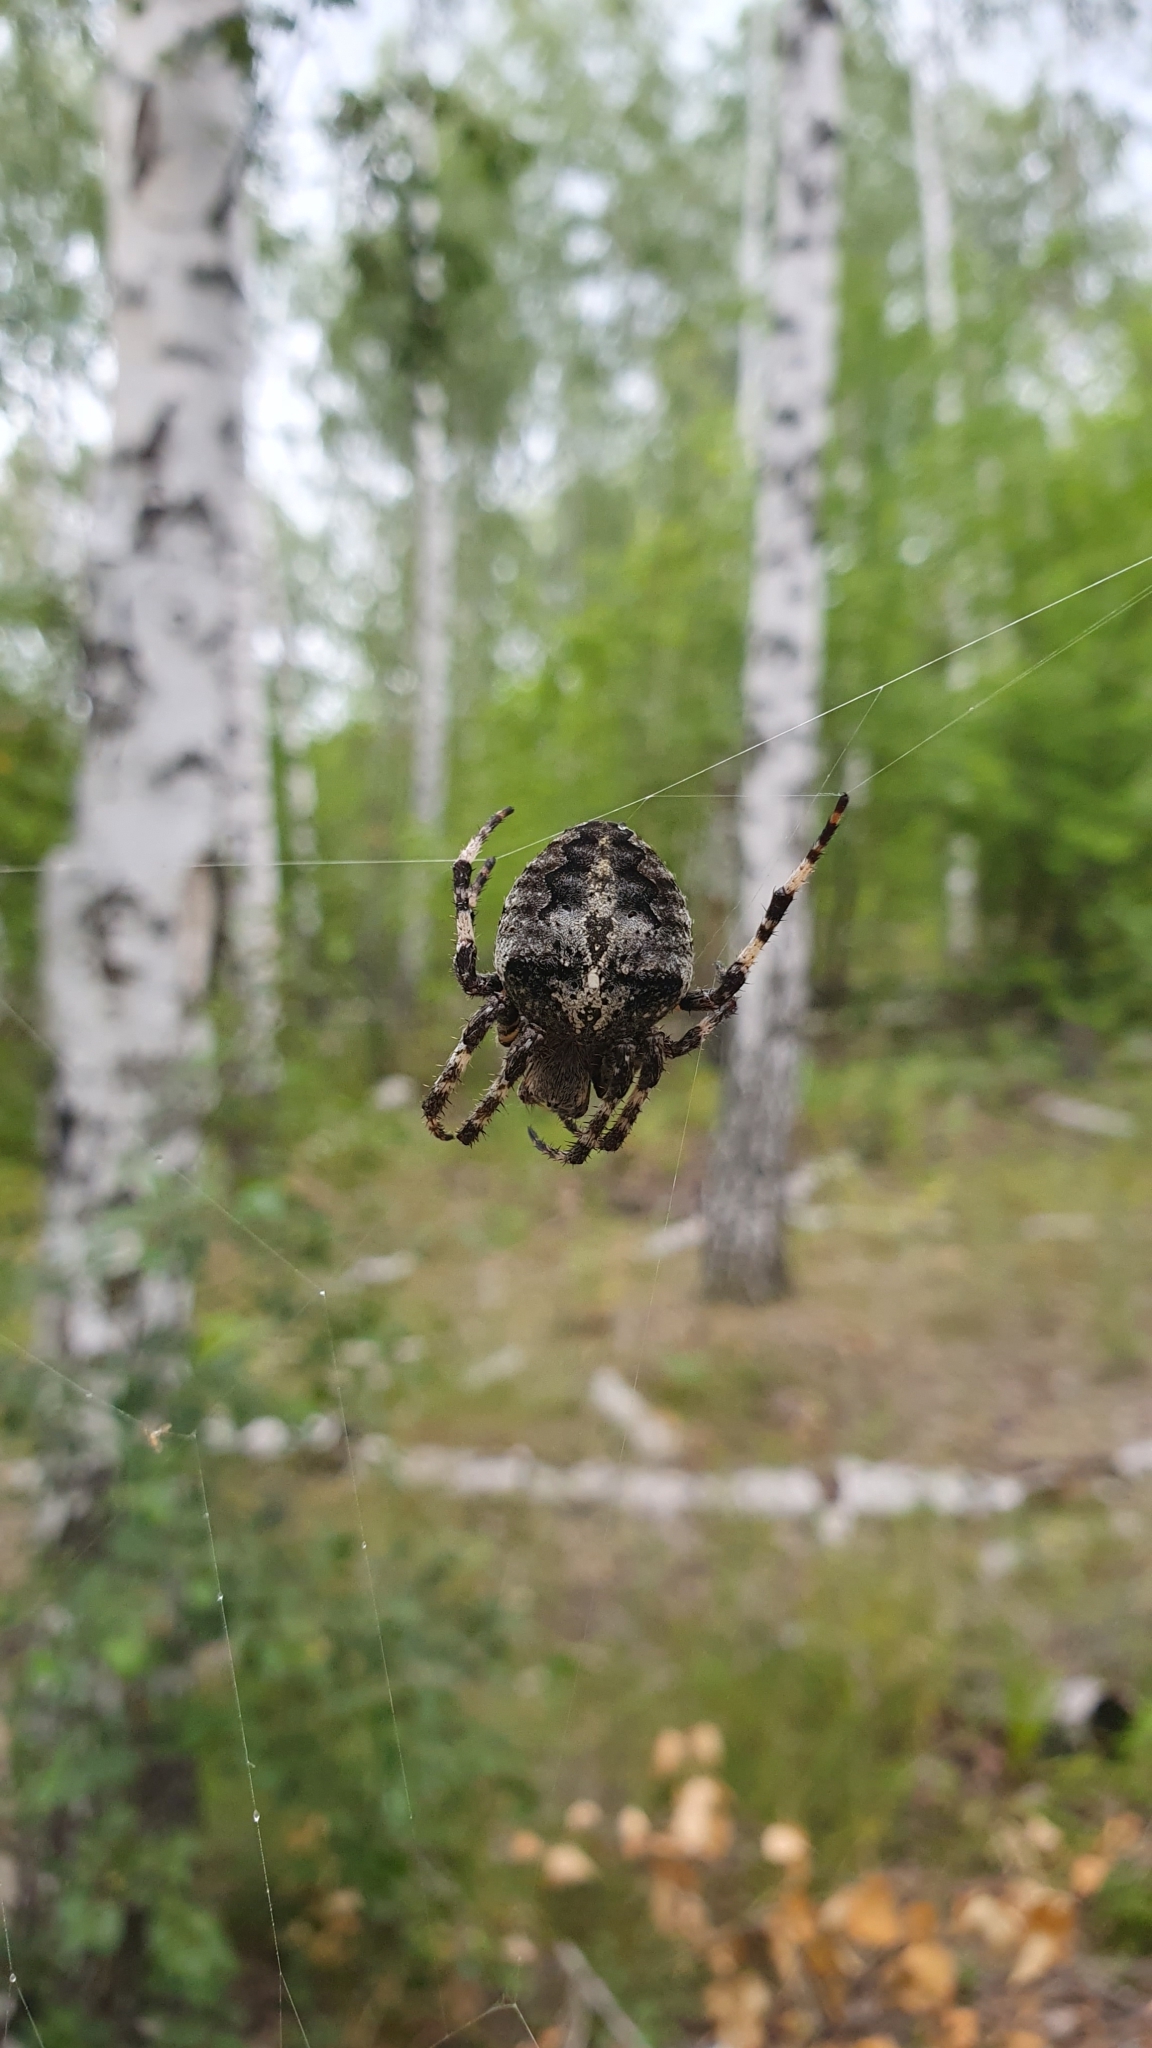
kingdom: Animalia
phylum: Arthropoda
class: Arachnida
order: Araneae
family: Araneidae
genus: Araneus
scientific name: Araneus angulatus
